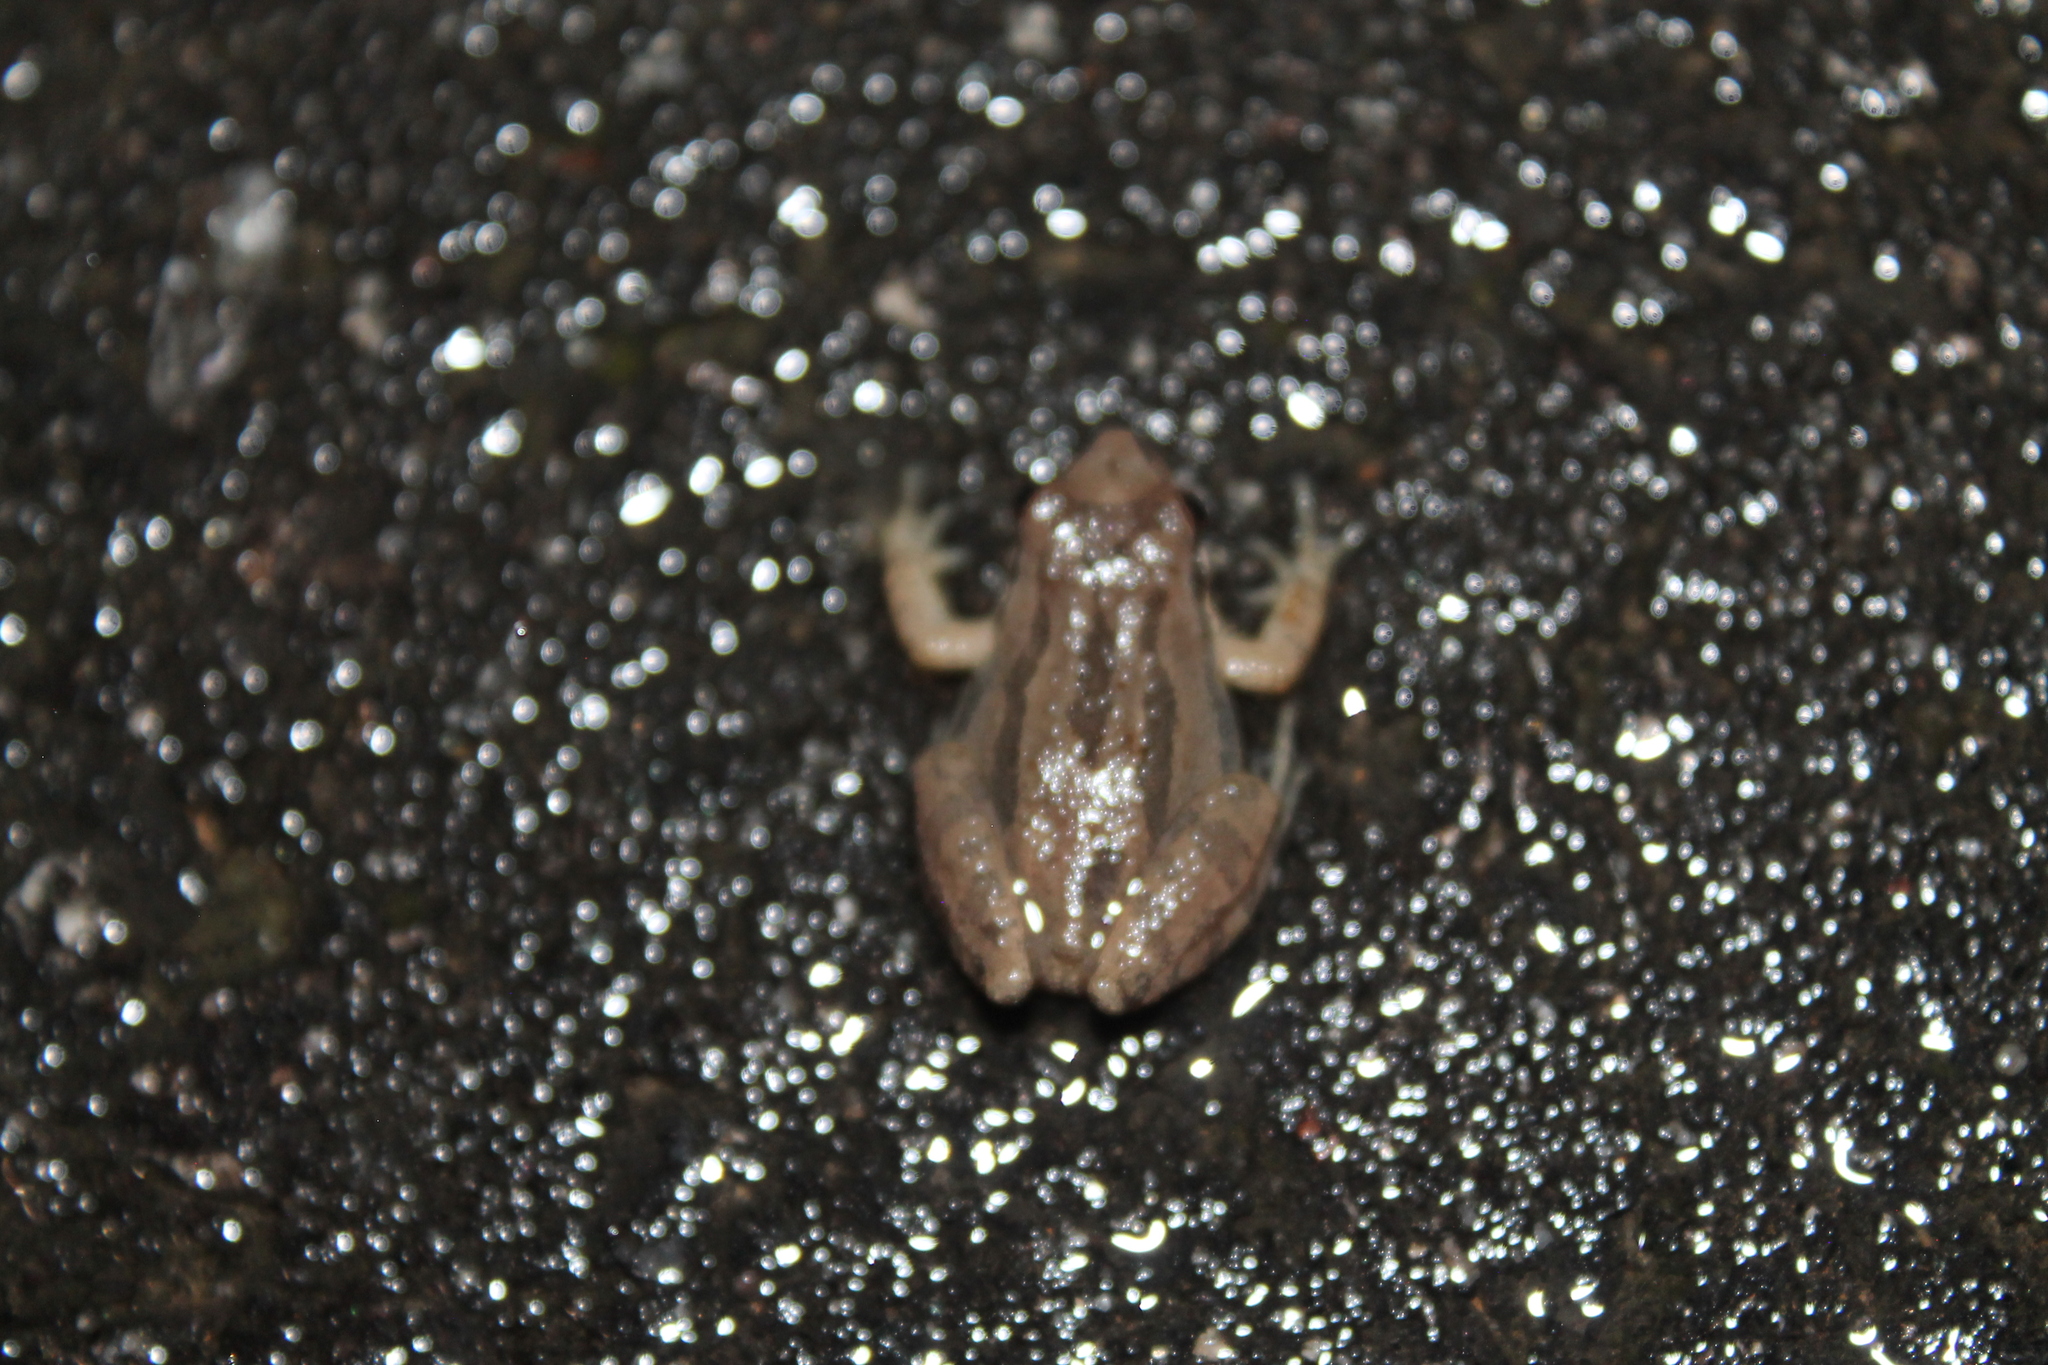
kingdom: Animalia
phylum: Chordata
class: Amphibia
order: Anura
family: Hylidae
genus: Pseudacris
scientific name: Pseudacris feriarum
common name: Upland chorus frog
